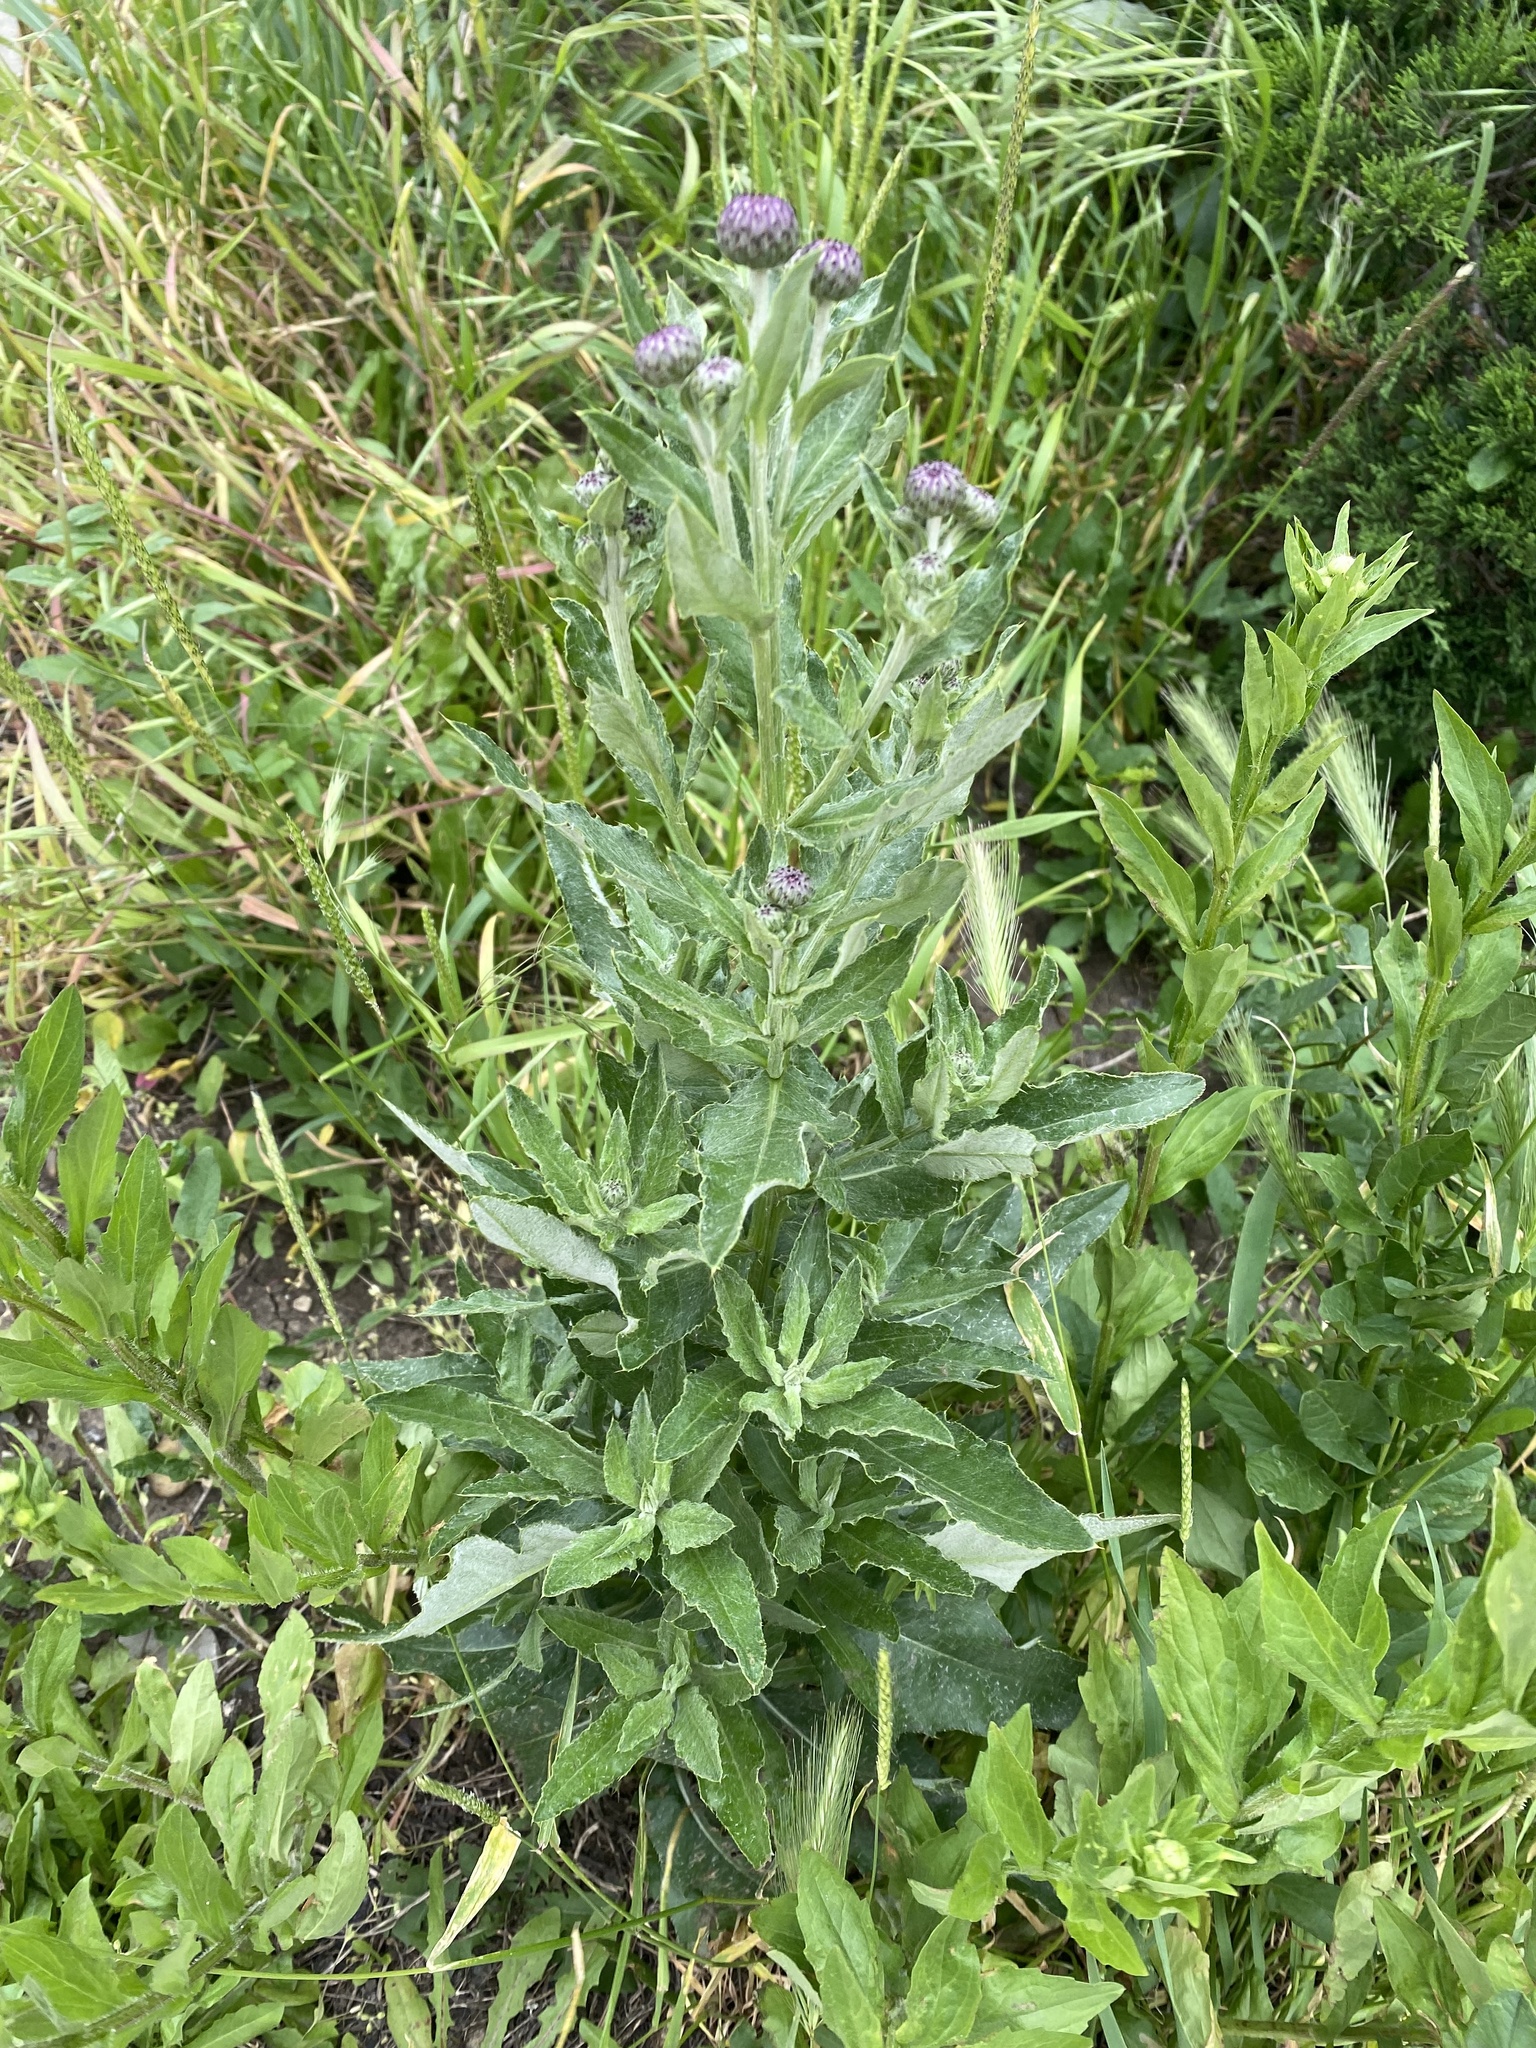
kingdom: Plantae
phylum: Tracheophyta
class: Magnoliopsida
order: Asterales
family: Asteraceae
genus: Cirsium
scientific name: Cirsium arvense
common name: Creeping thistle
